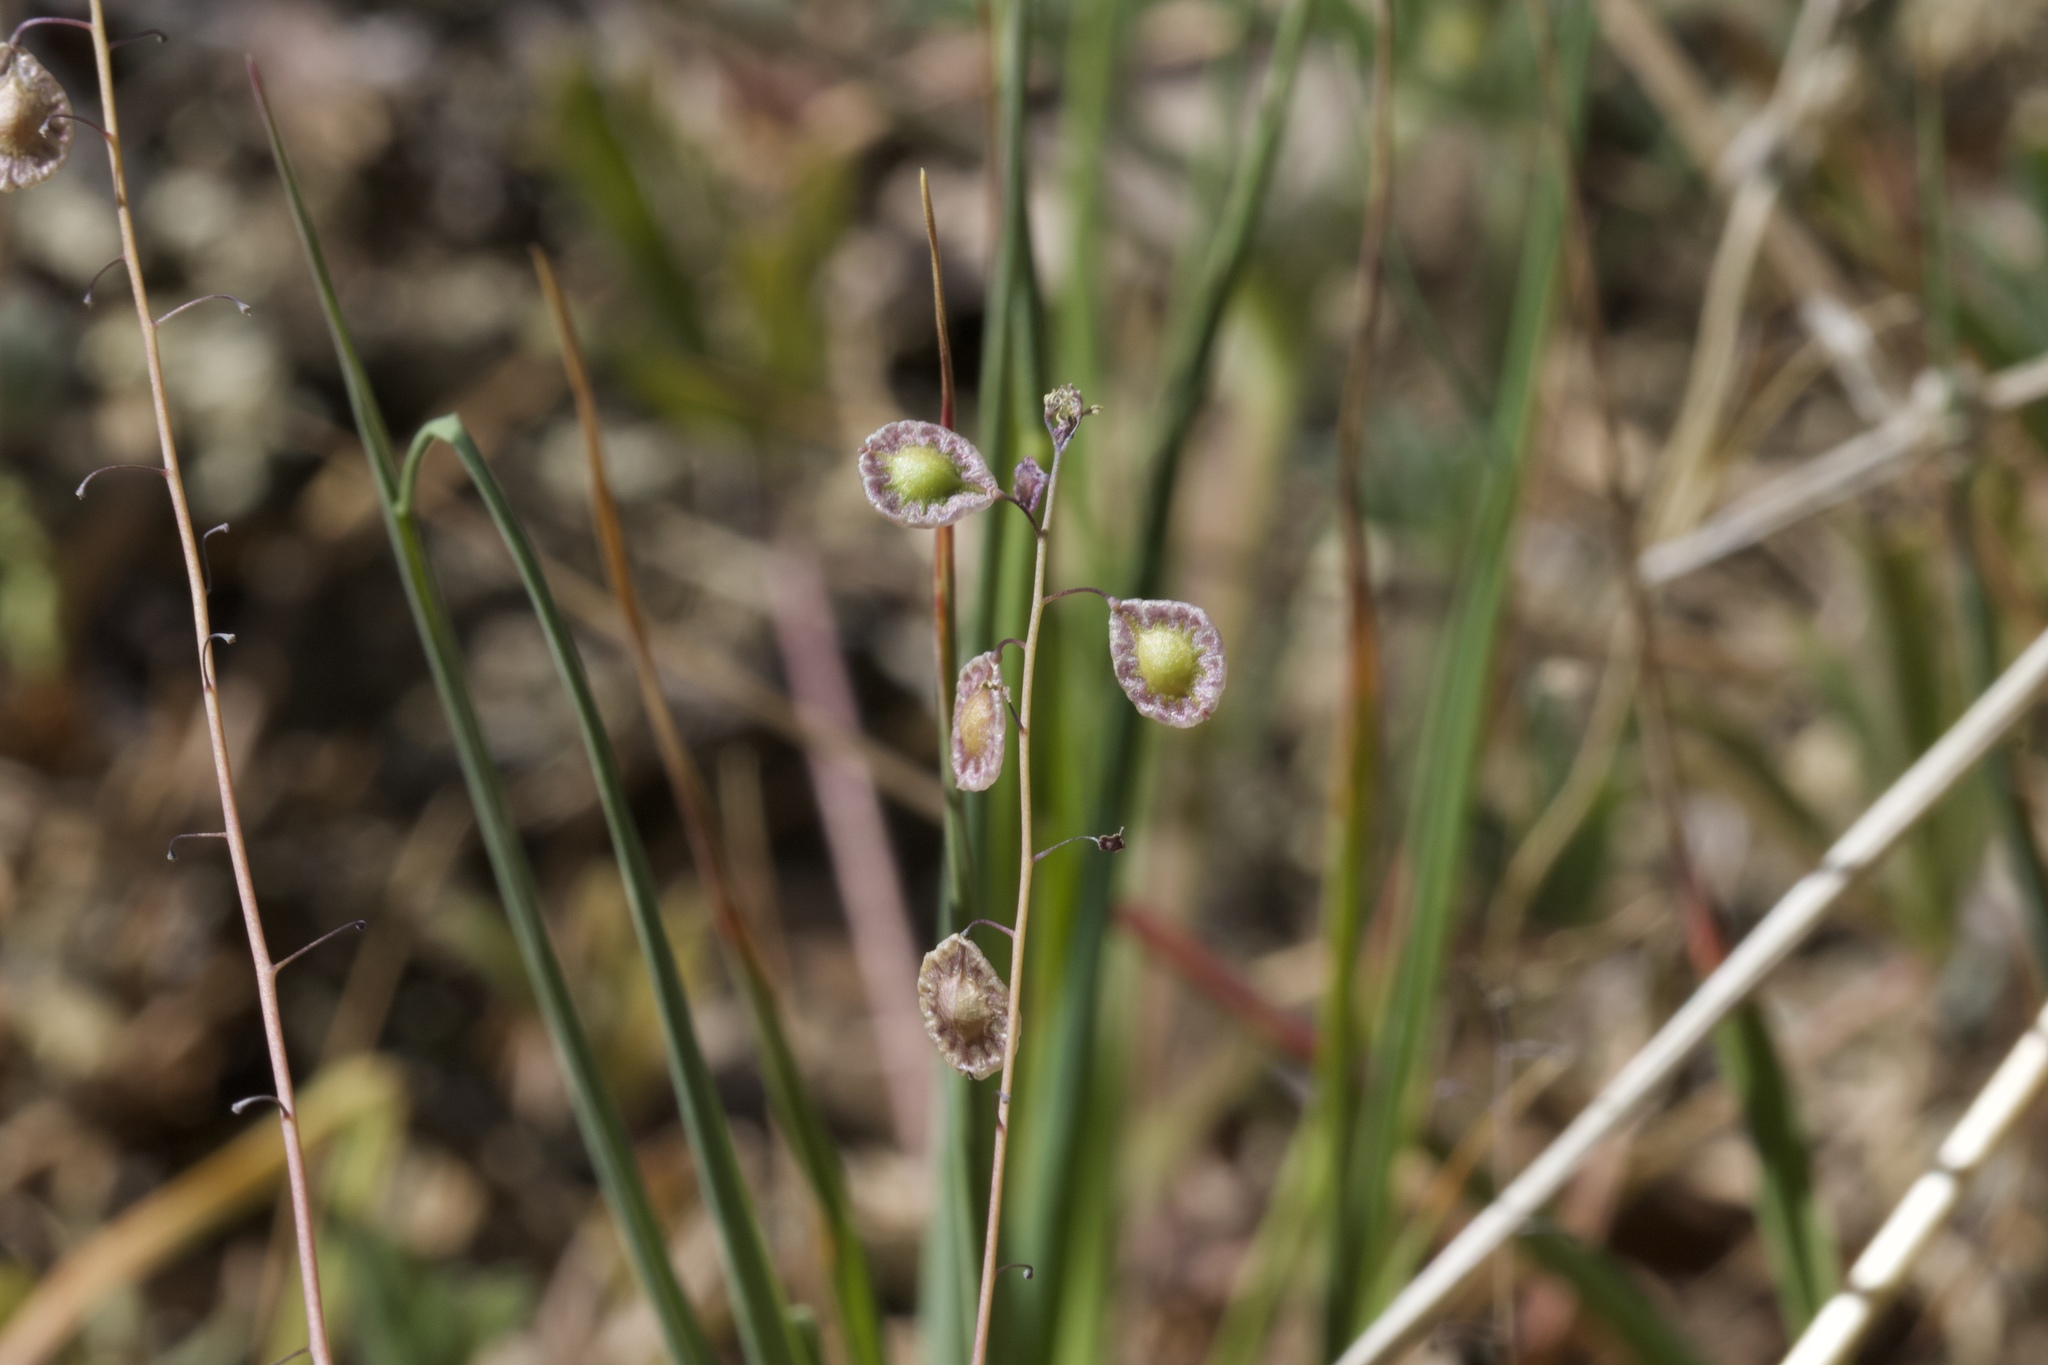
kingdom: Plantae
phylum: Tracheophyta
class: Magnoliopsida
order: Brassicales
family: Brassicaceae
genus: Thysanocarpus
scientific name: Thysanocarpus curvipes
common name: Sand fringepod
